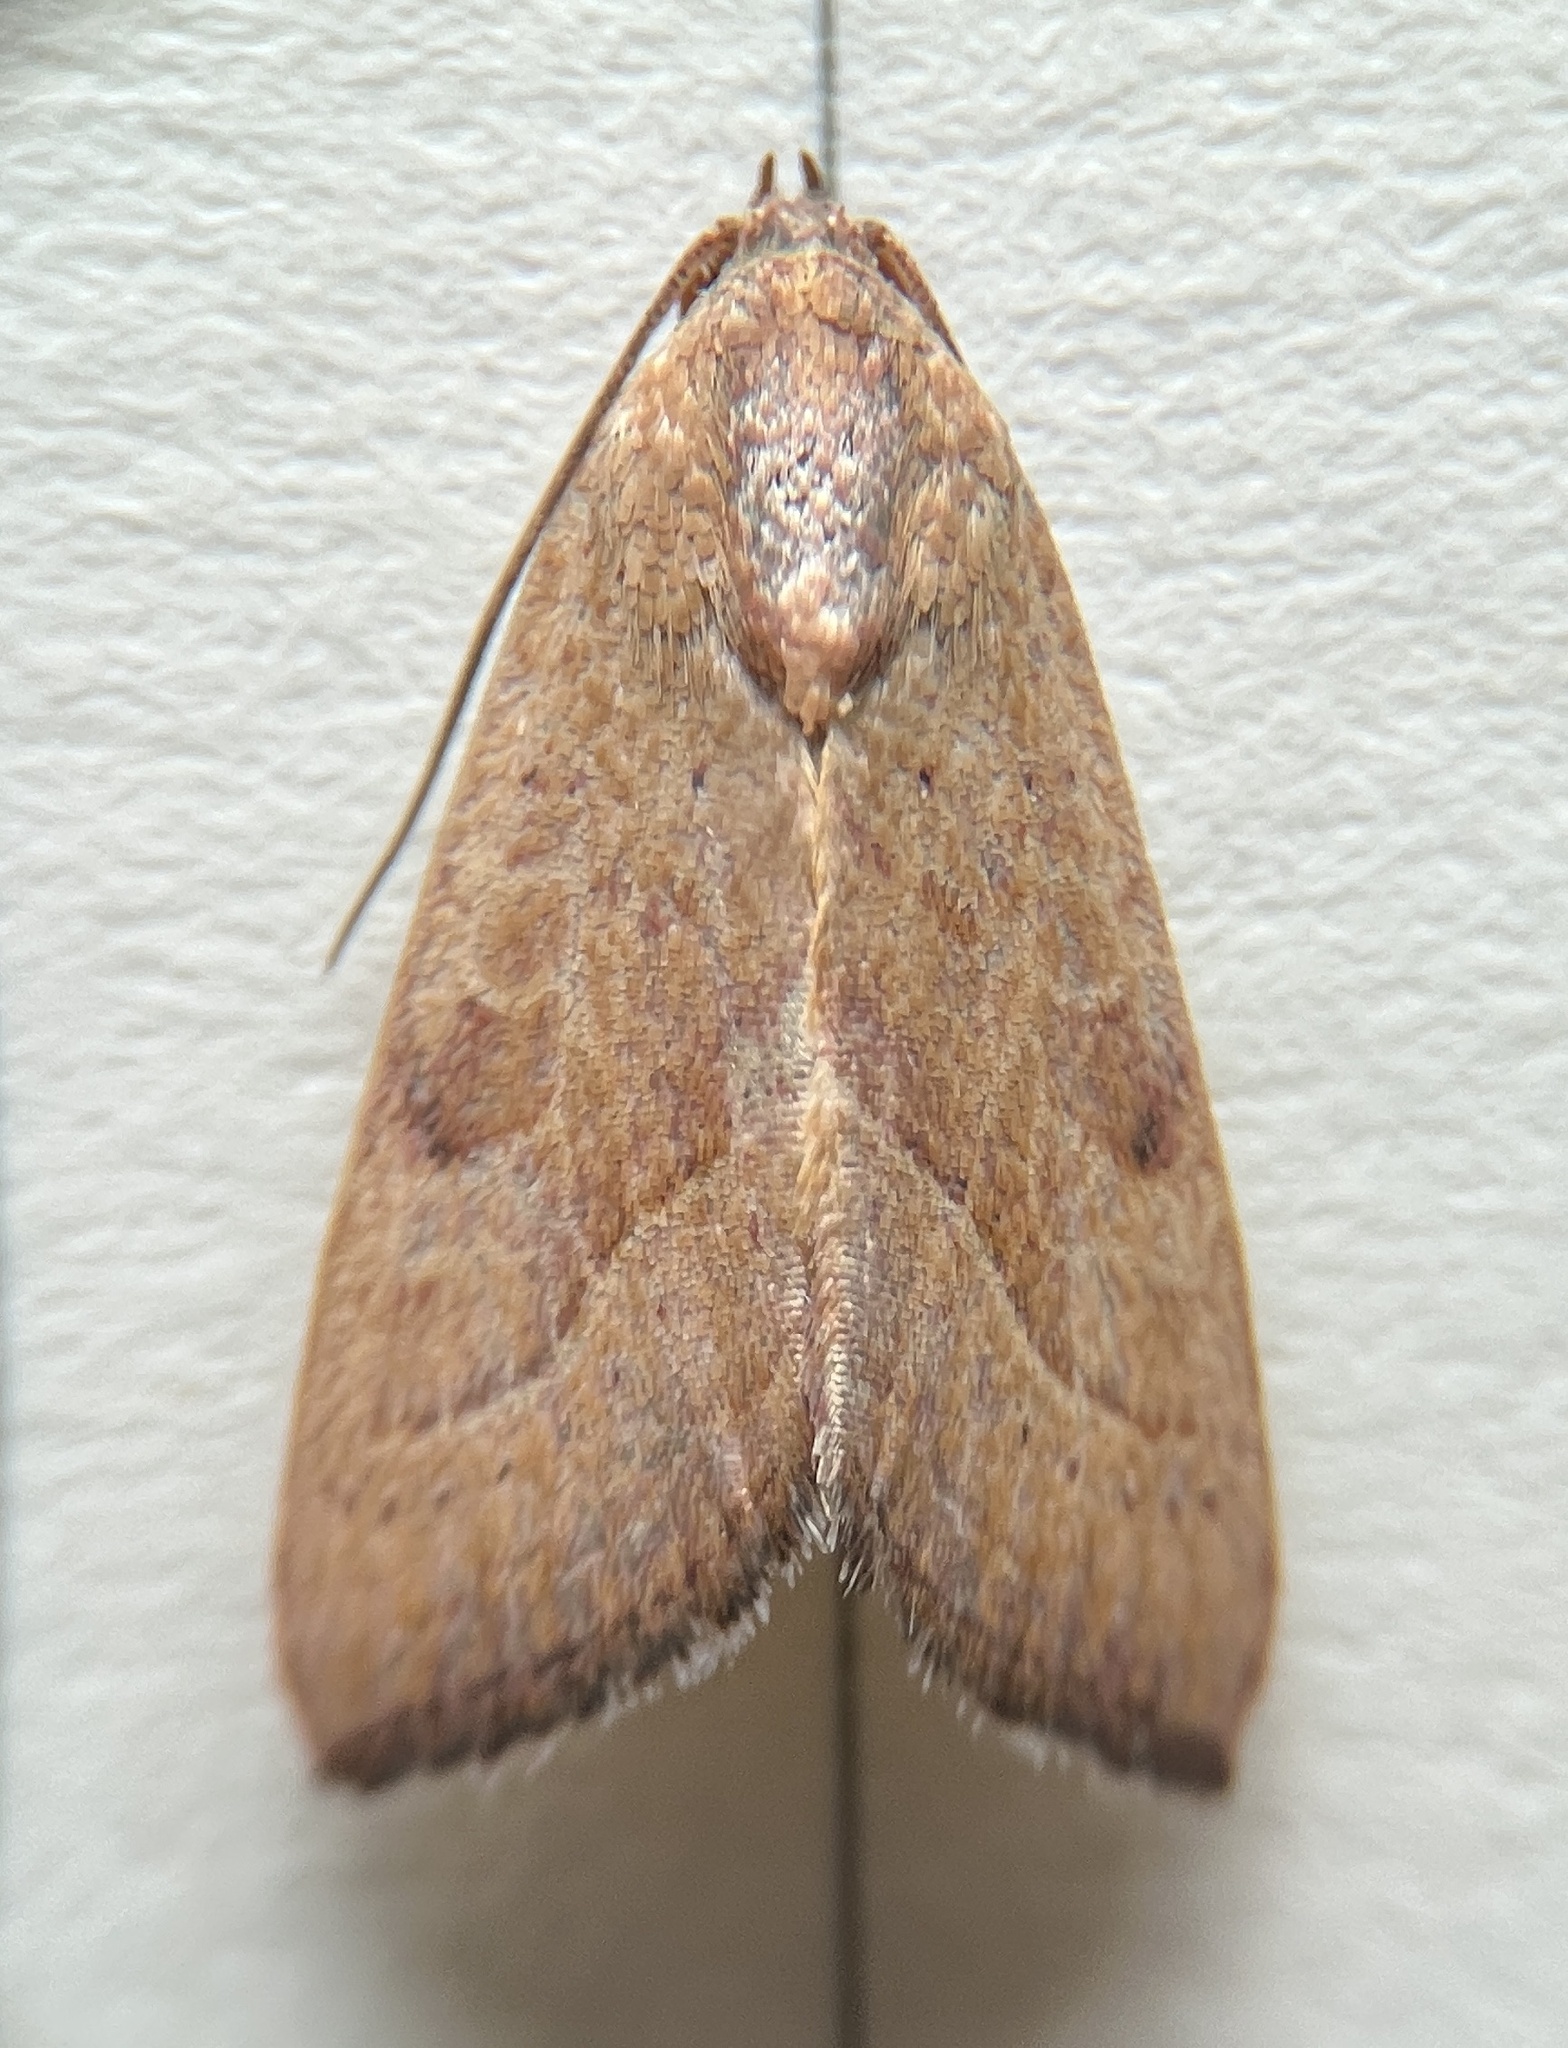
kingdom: Animalia
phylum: Arthropoda
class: Insecta
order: Lepidoptera
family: Noctuidae
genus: Galgula
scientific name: Galgula partita
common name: Wedgeling
